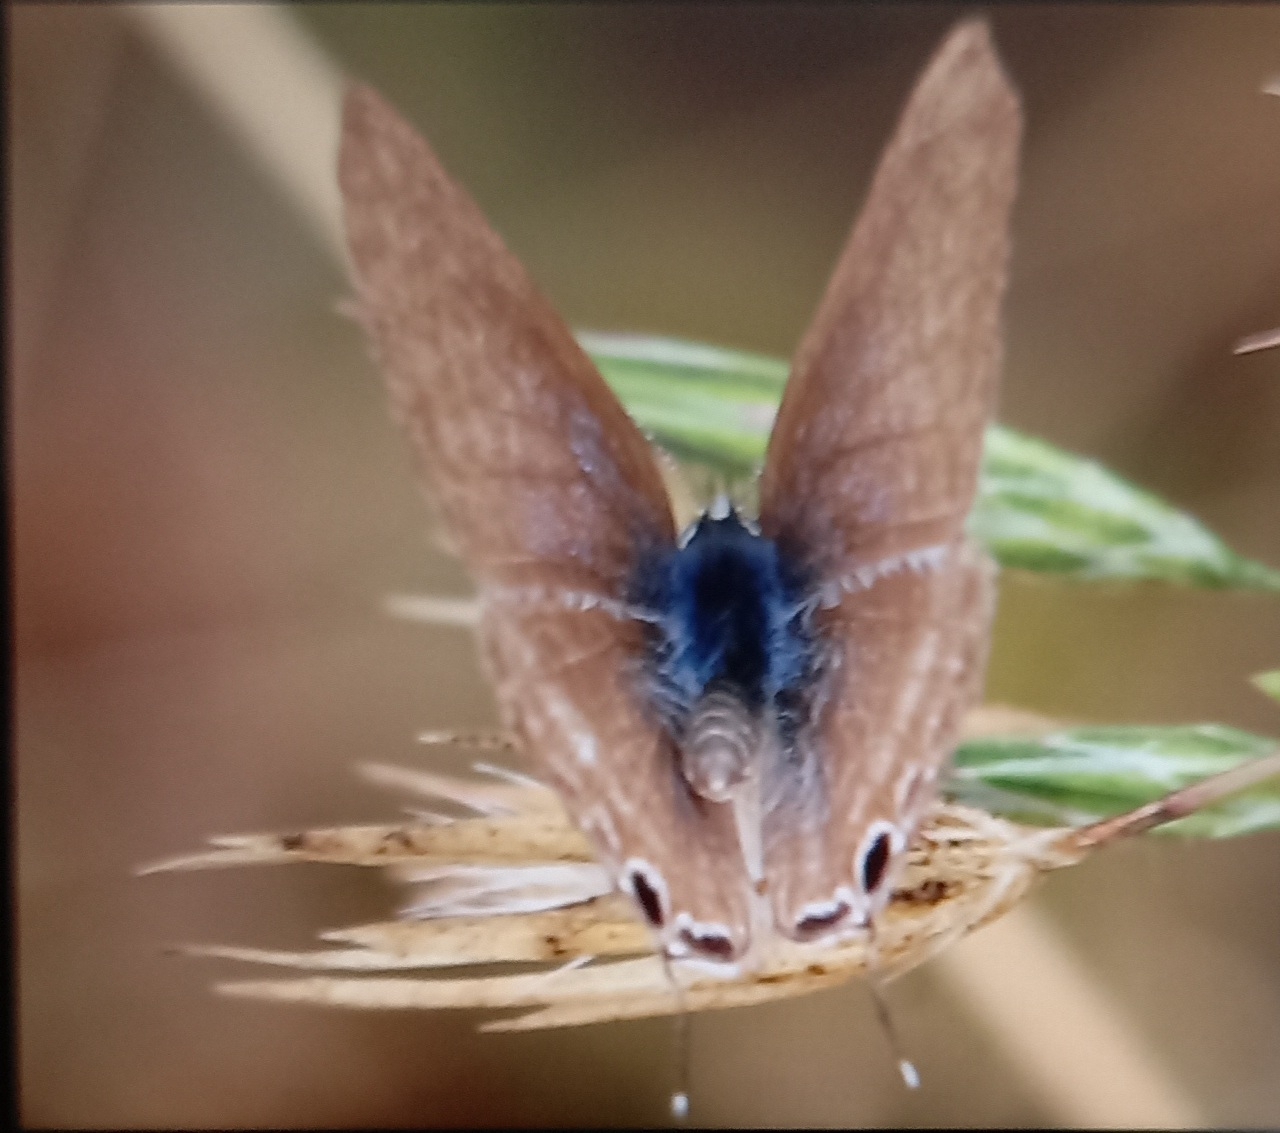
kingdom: Animalia
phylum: Arthropoda
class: Insecta
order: Lepidoptera
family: Lycaenidae
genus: Lampides
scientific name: Lampides boeticus
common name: Long-tailed blue
